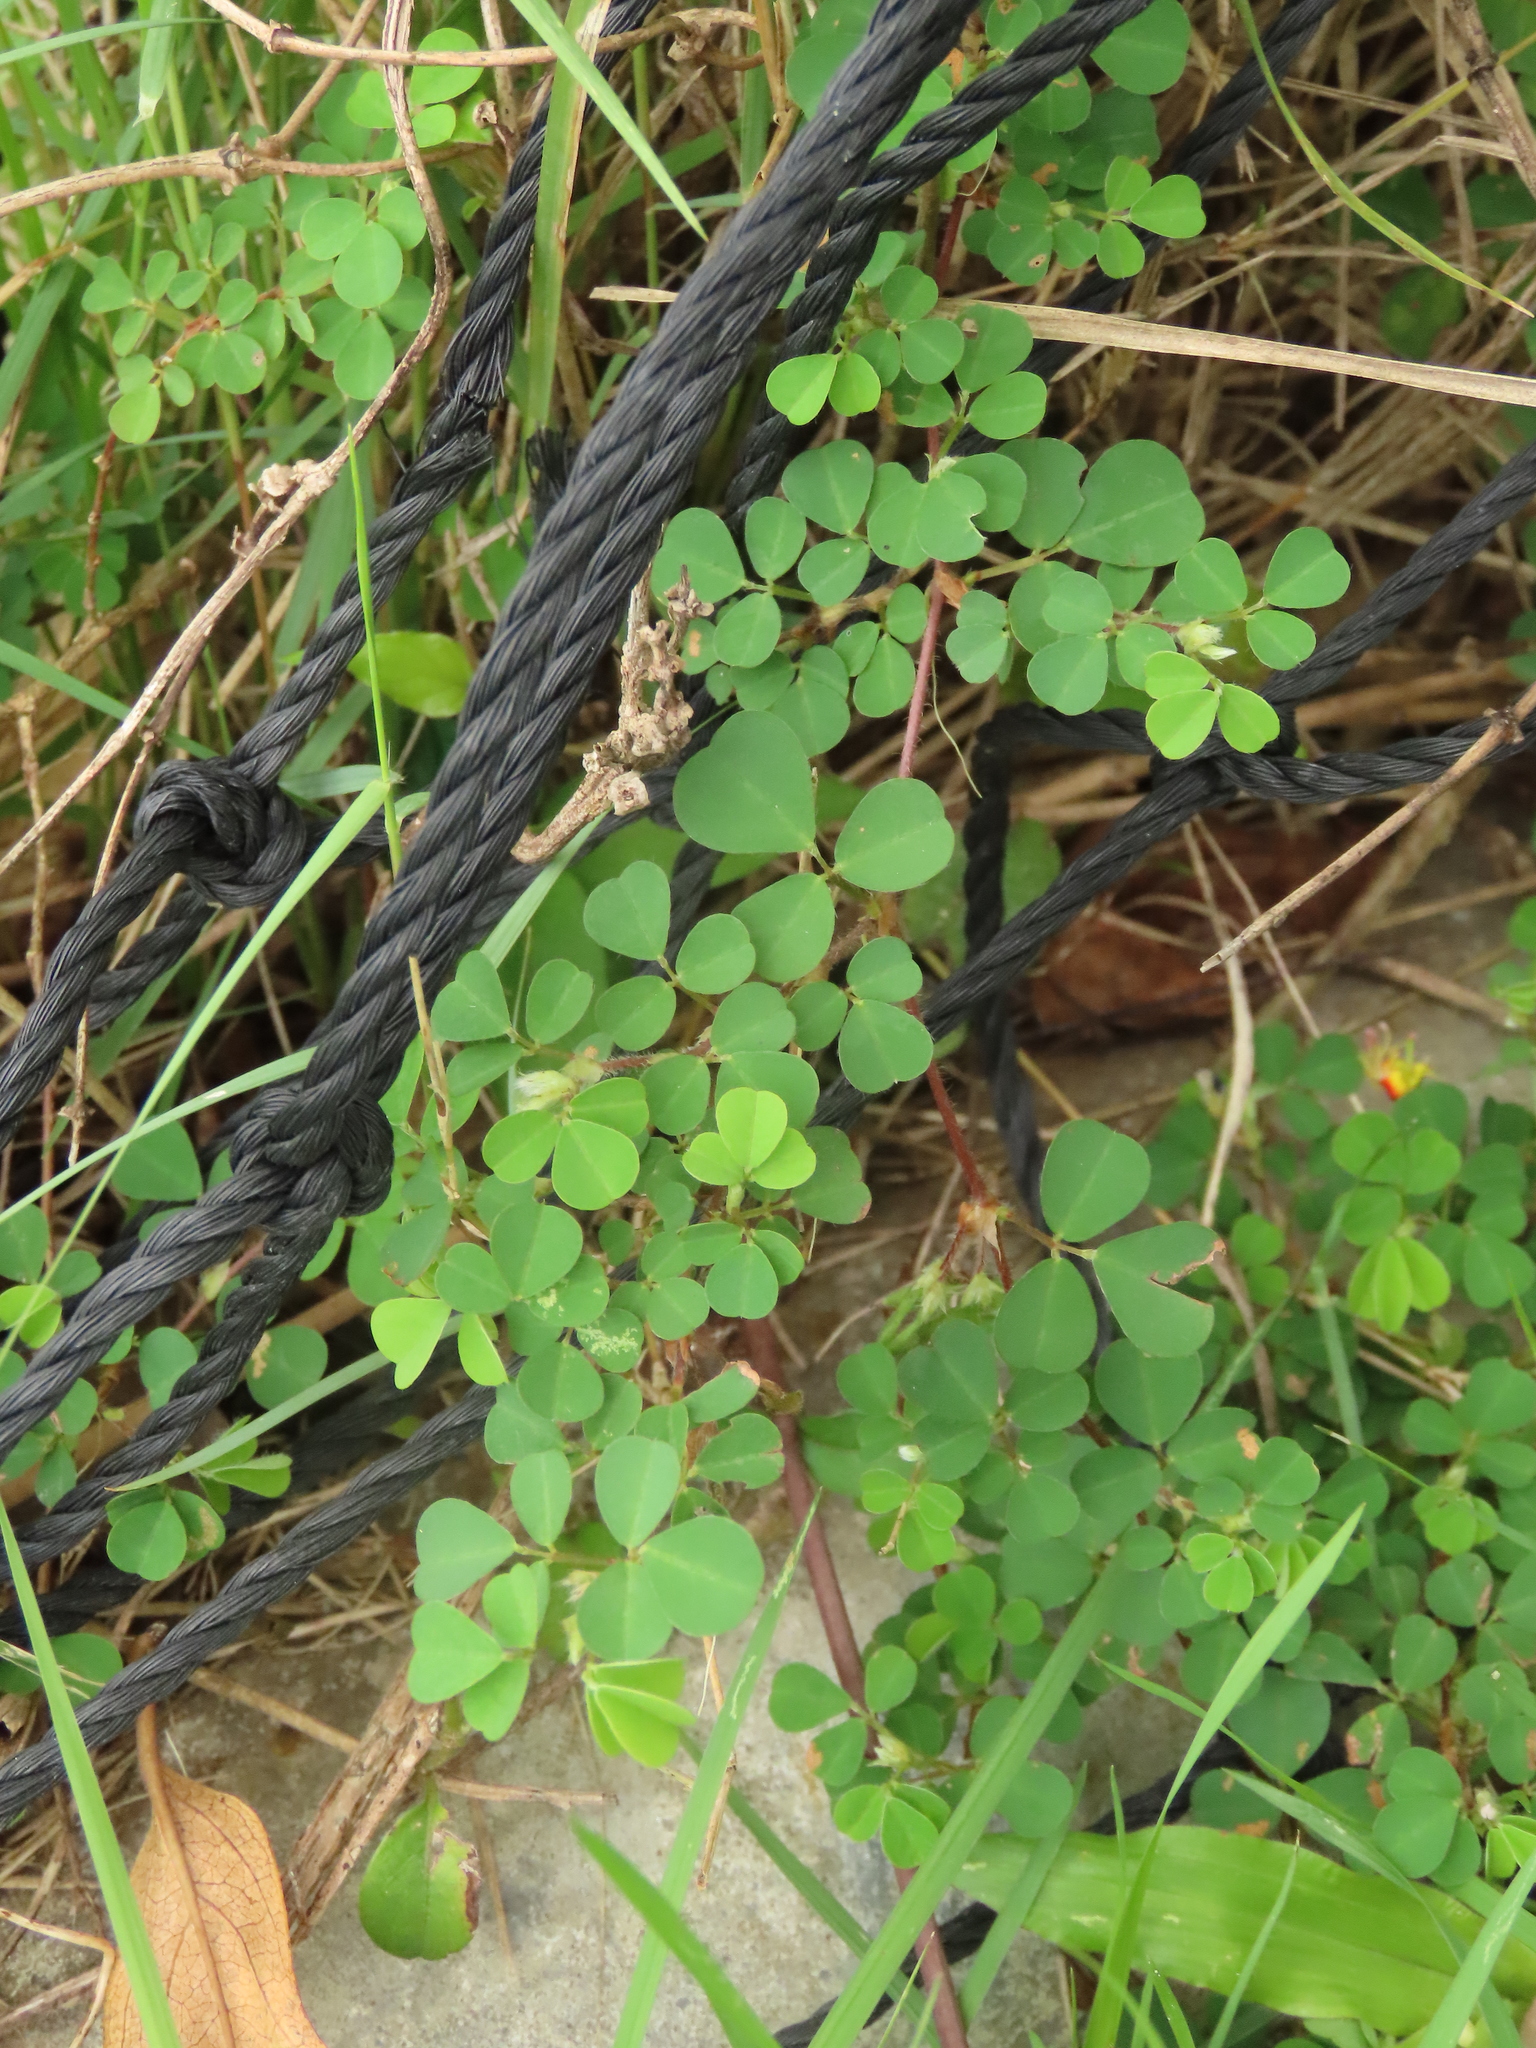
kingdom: Plantae
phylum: Tracheophyta
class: Magnoliopsida
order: Fabales
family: Fabaceae
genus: Grona
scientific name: Grona triflora
